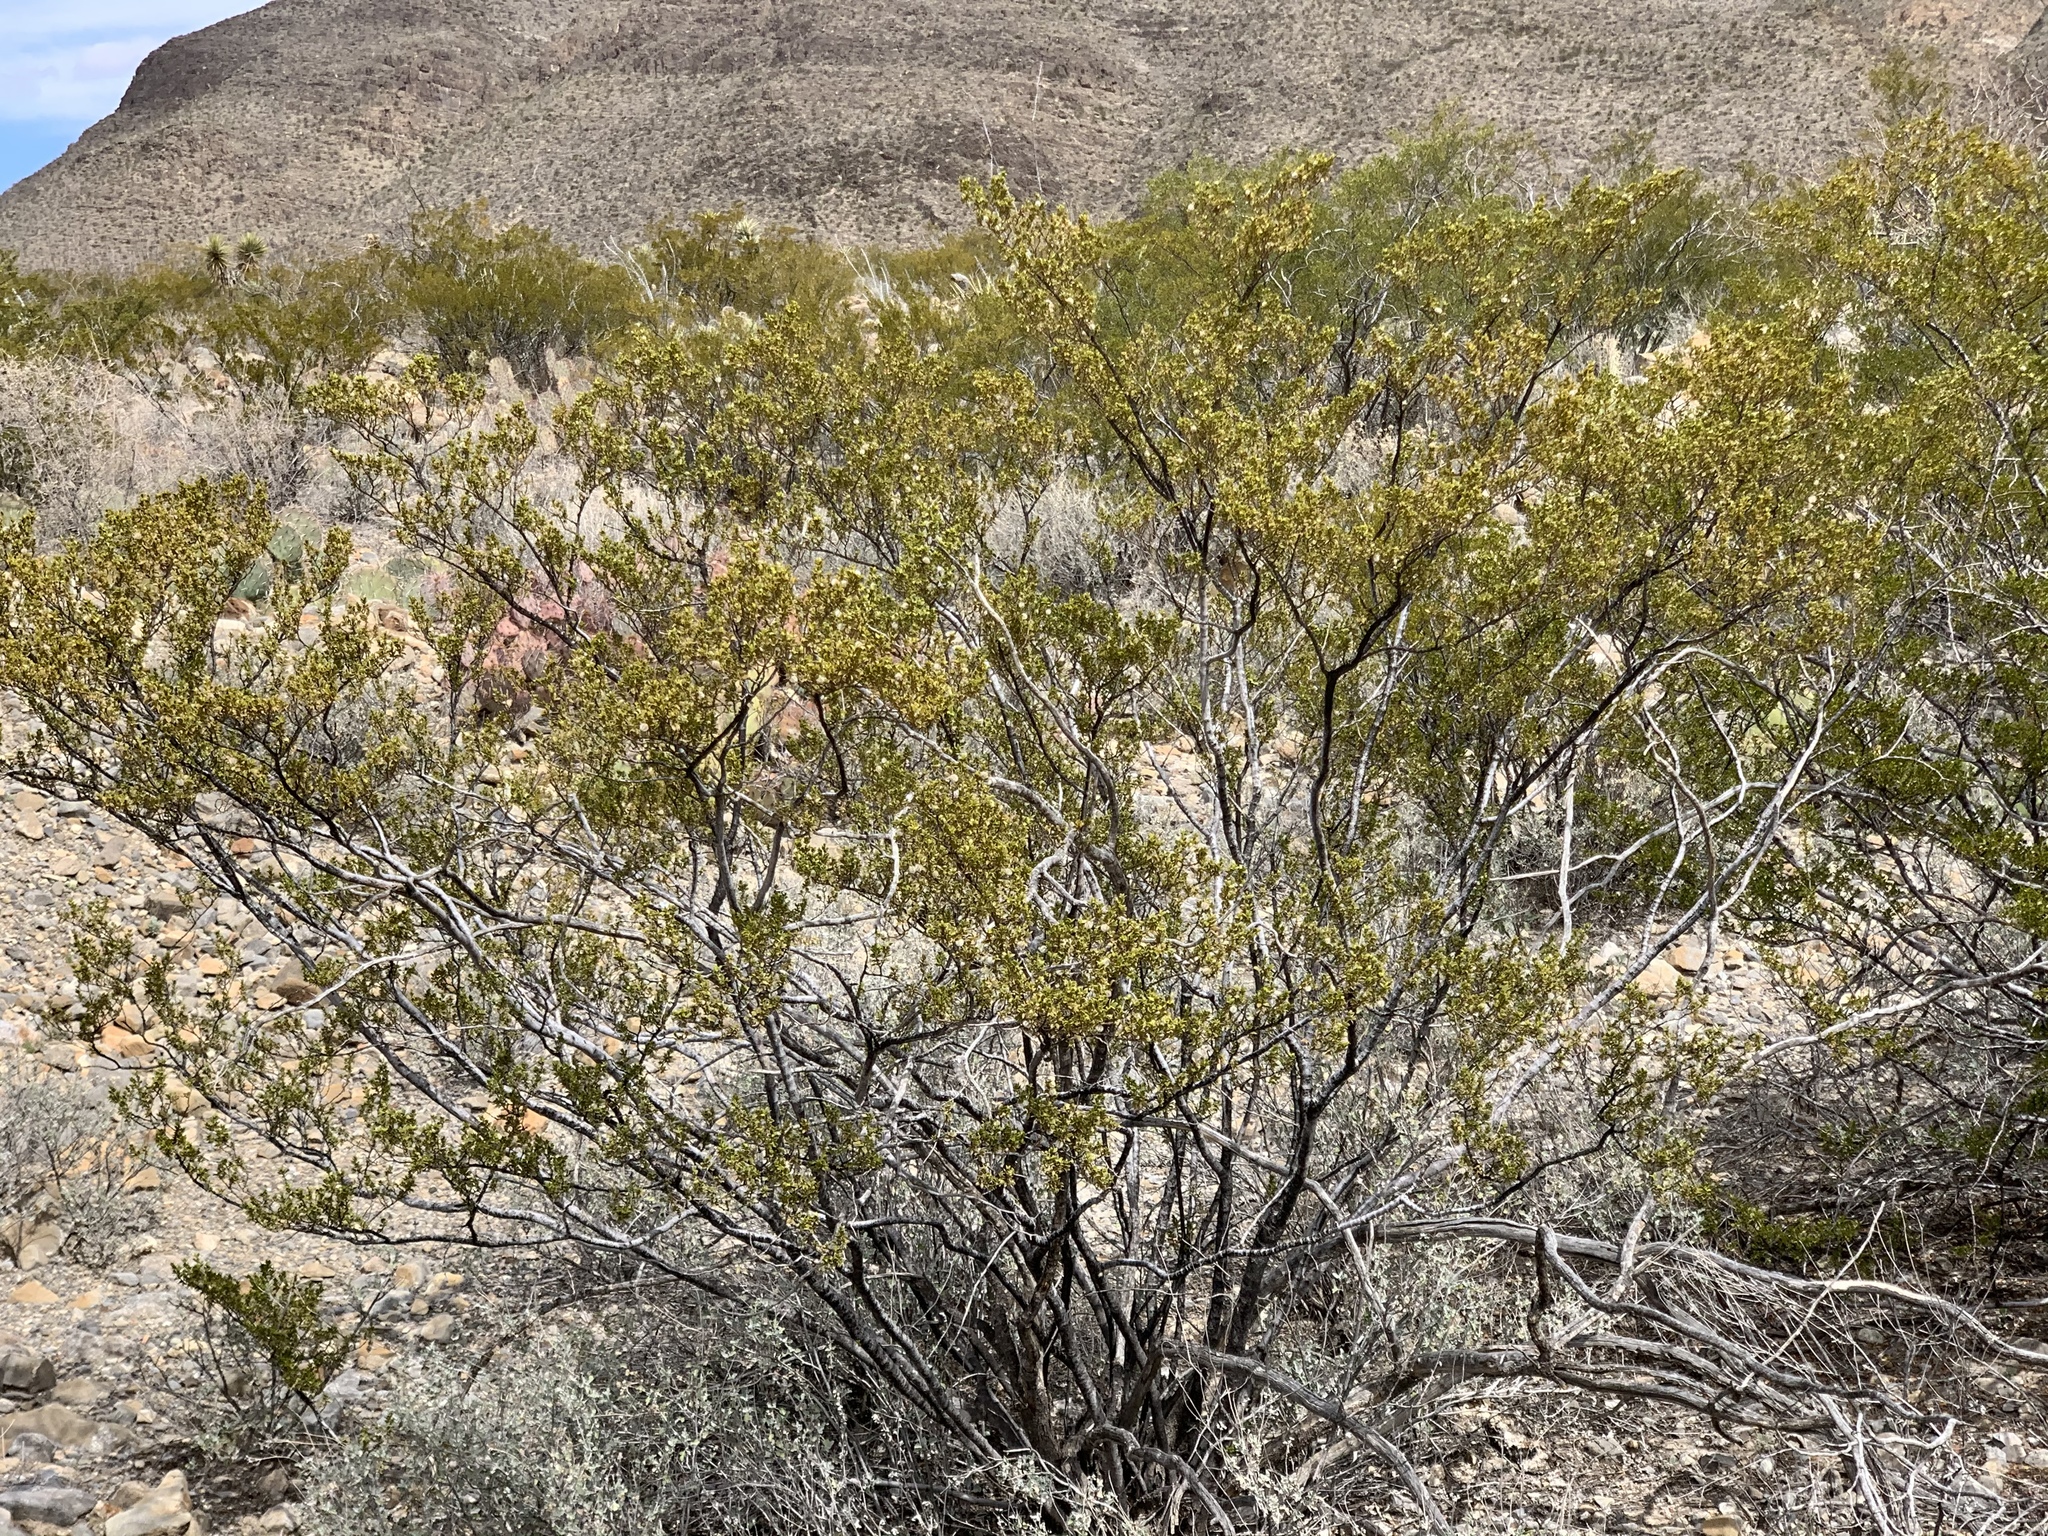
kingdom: Plantae
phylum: Tracheophyta
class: Magnoliopsida
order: Zygophyllales
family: Zygophyllaceae
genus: Larrea
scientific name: Larrea tridentata
